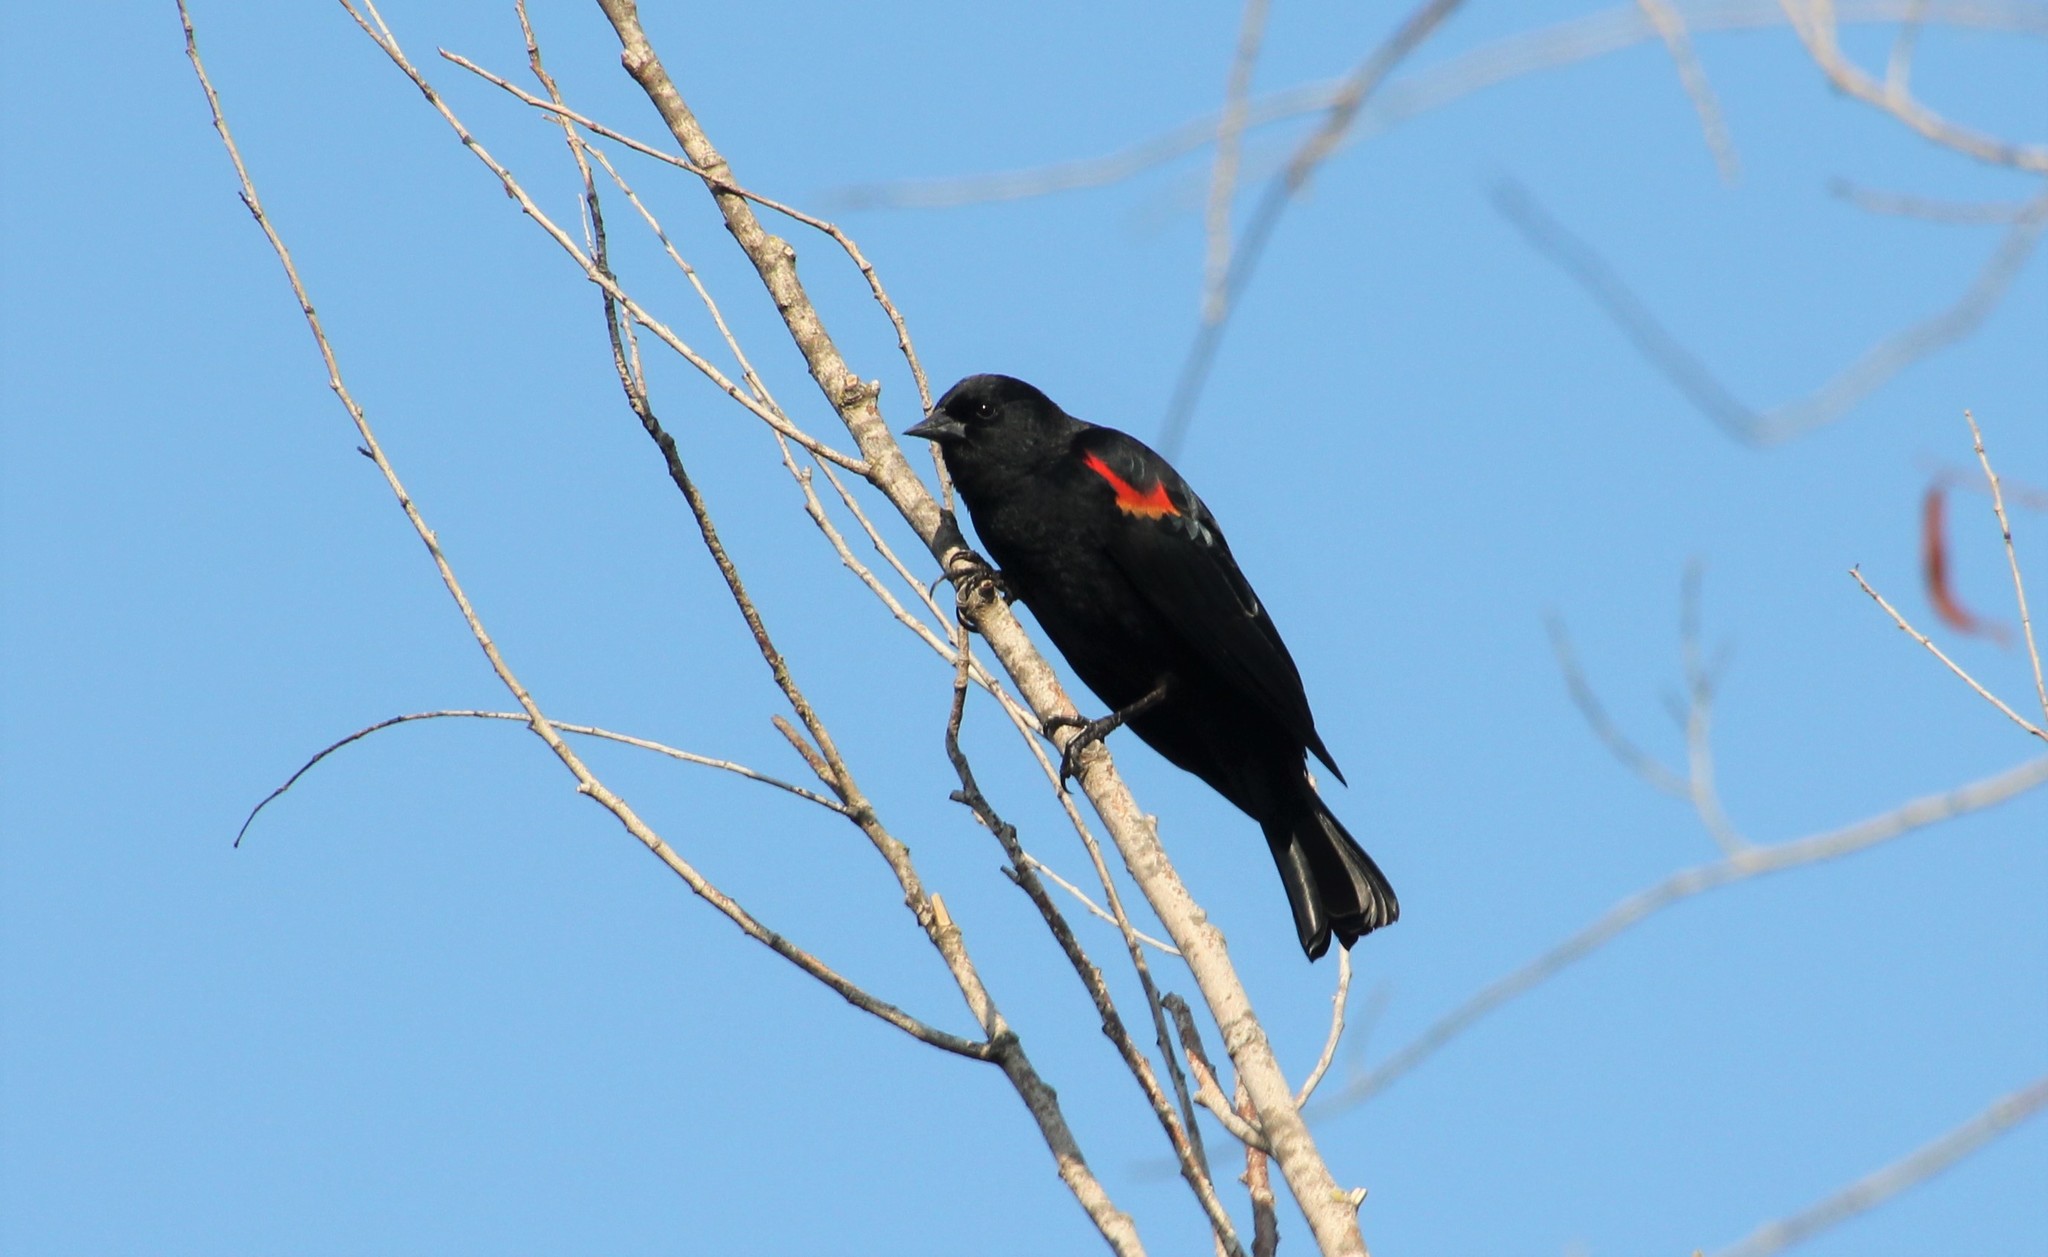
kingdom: Animalia
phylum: Chordata
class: Aves
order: Passeriformes
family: Icteridae
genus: Agelaius
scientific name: Agelaius phoeniceus
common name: Red-winged blackbird
